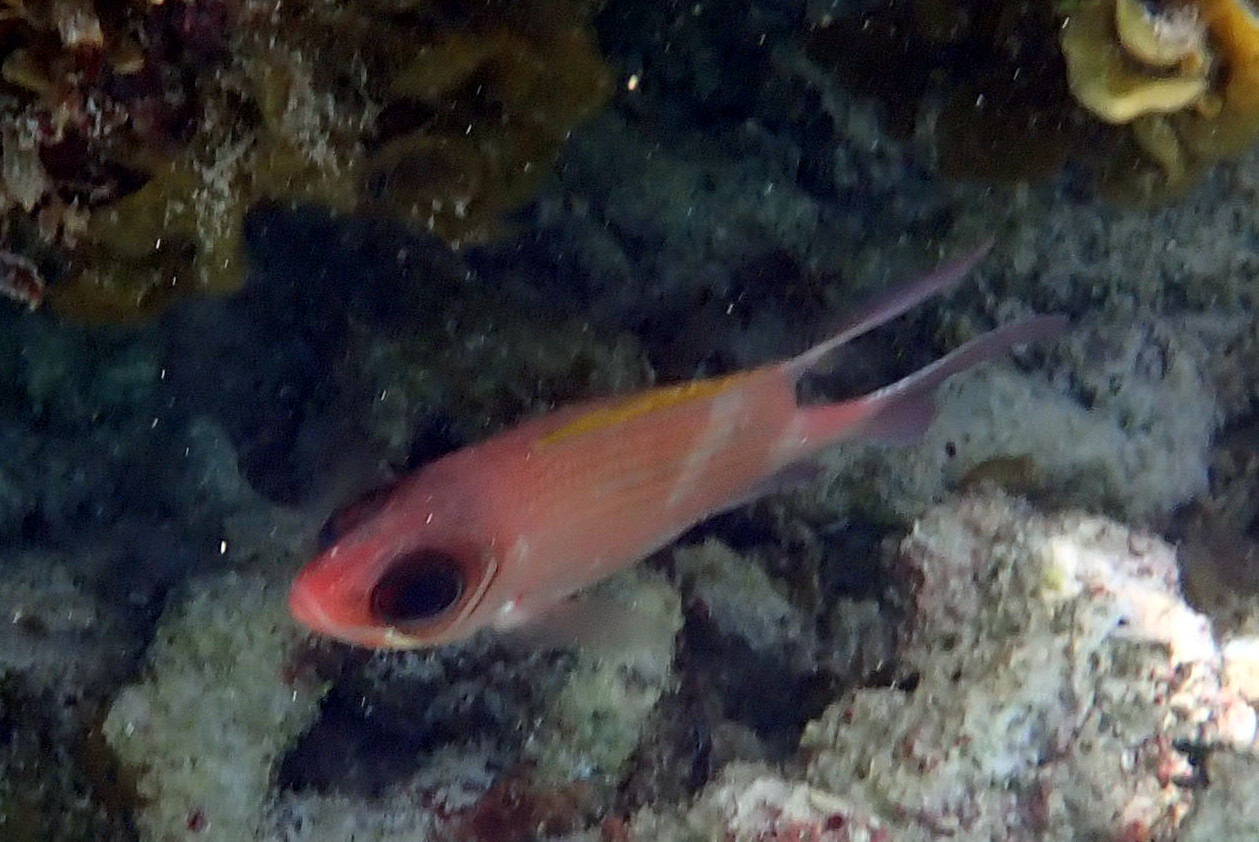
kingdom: Animalia
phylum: Chordata
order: Beryciformes
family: Holocentridae
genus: Holocentrus
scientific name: Holocentrus adscensionis
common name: Squirrelfish
